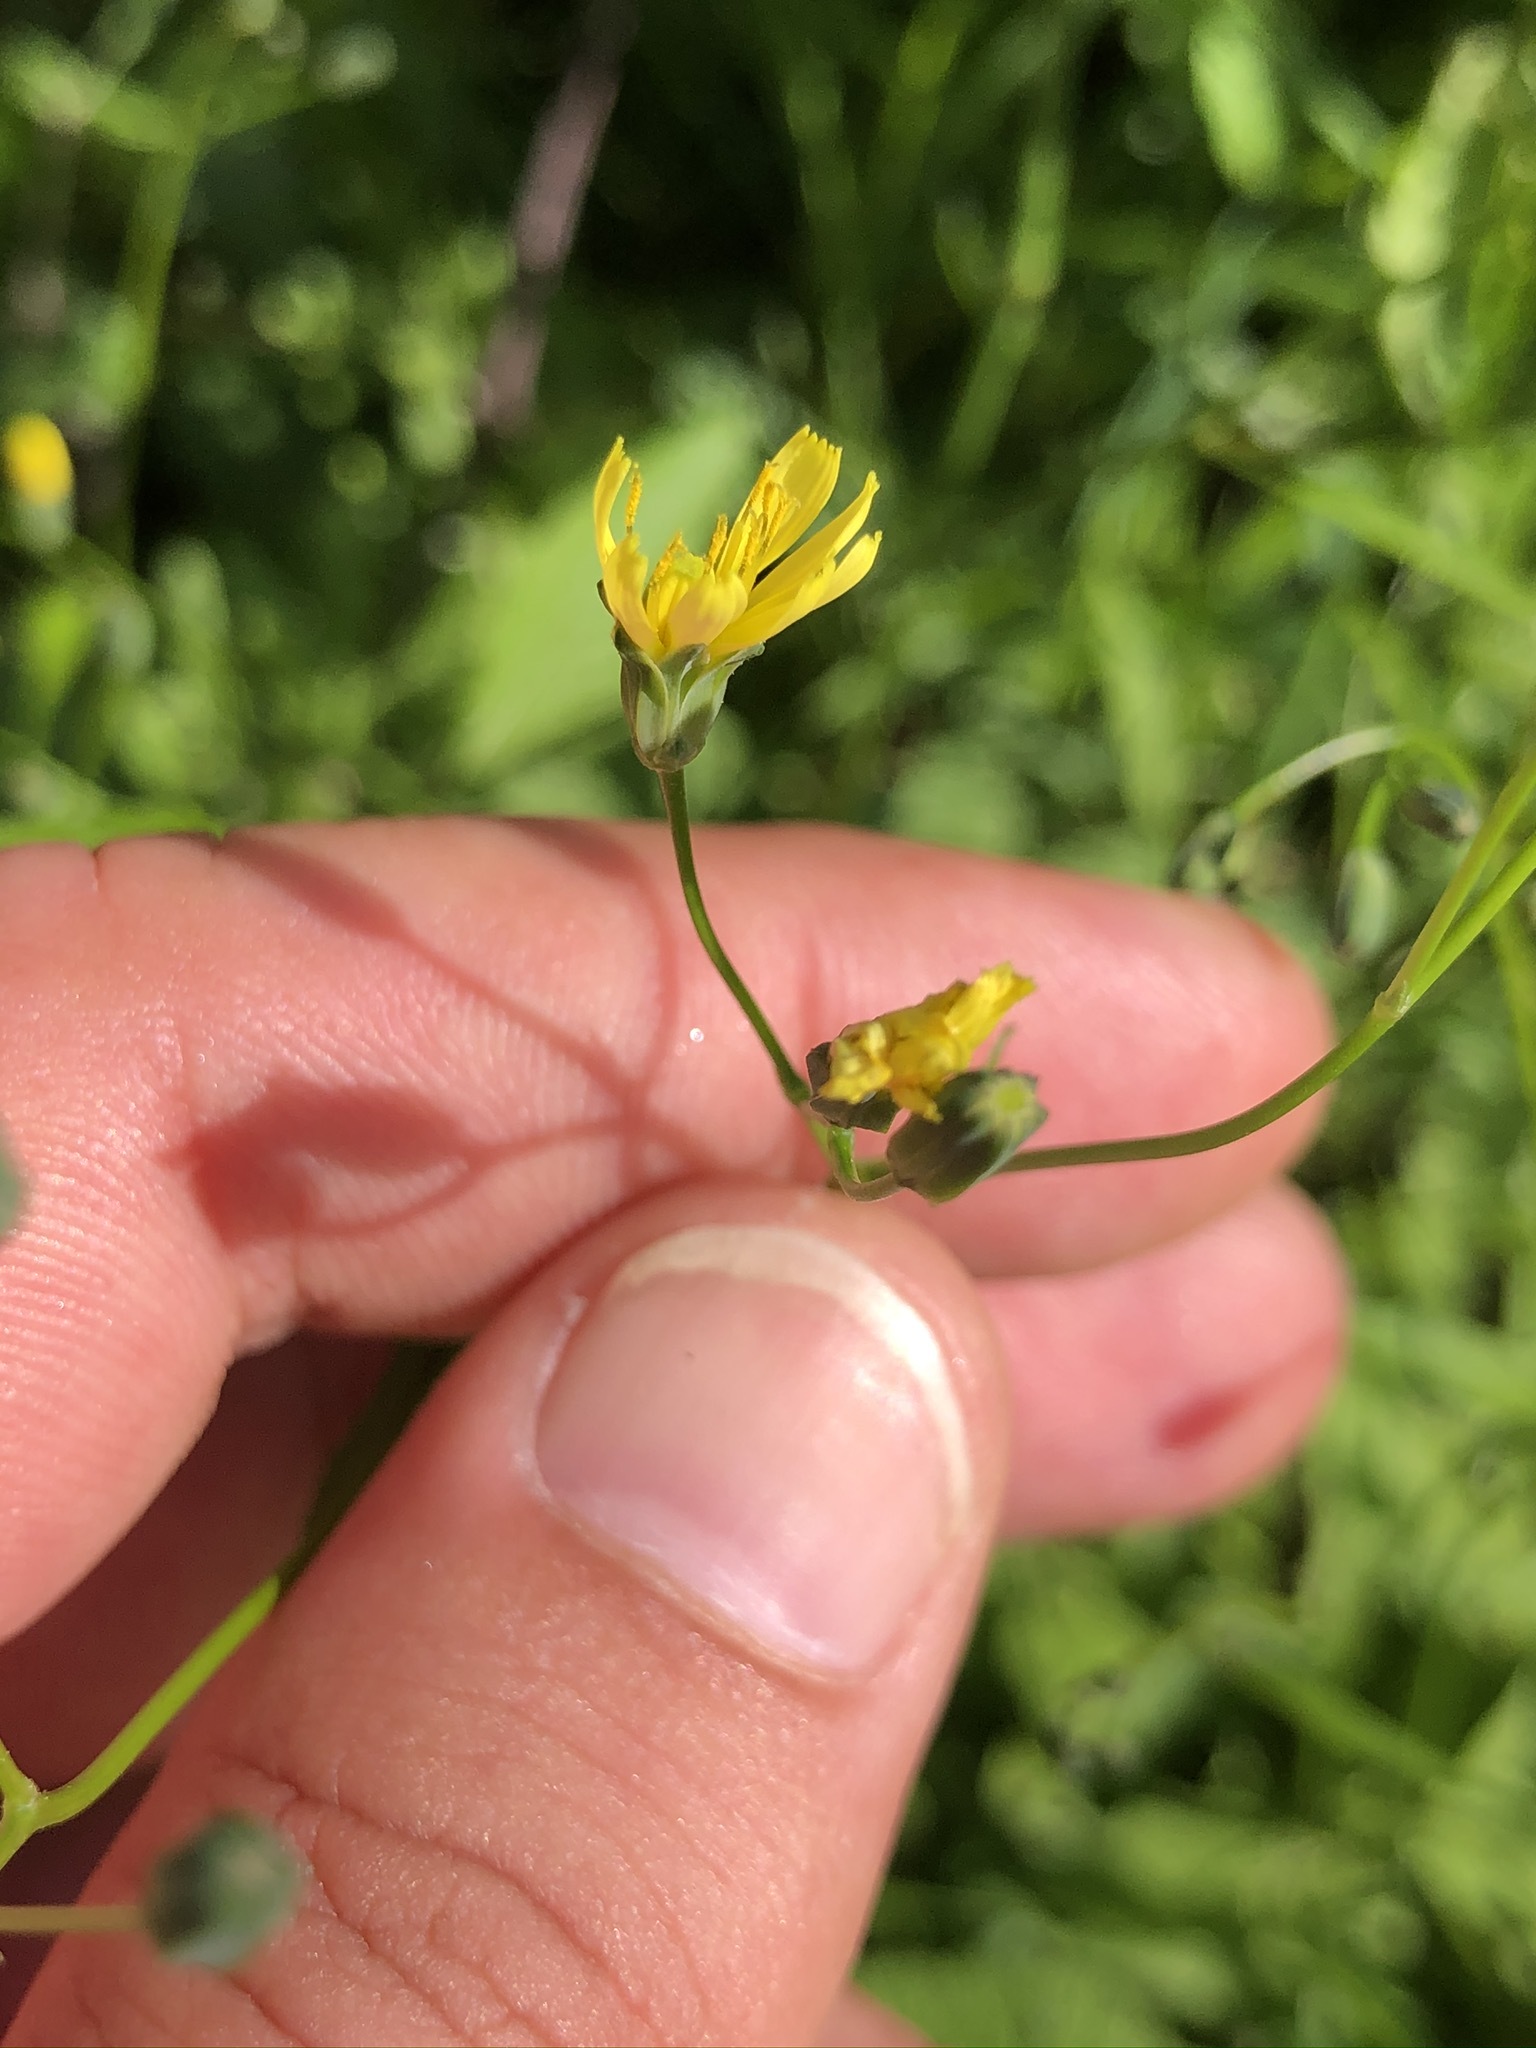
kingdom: Plantae
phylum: Tracheophyta
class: Magnoliopsida
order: Asterales
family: Asteraceae
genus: Lapsana
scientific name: Lapsana communis
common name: Nipplewort
